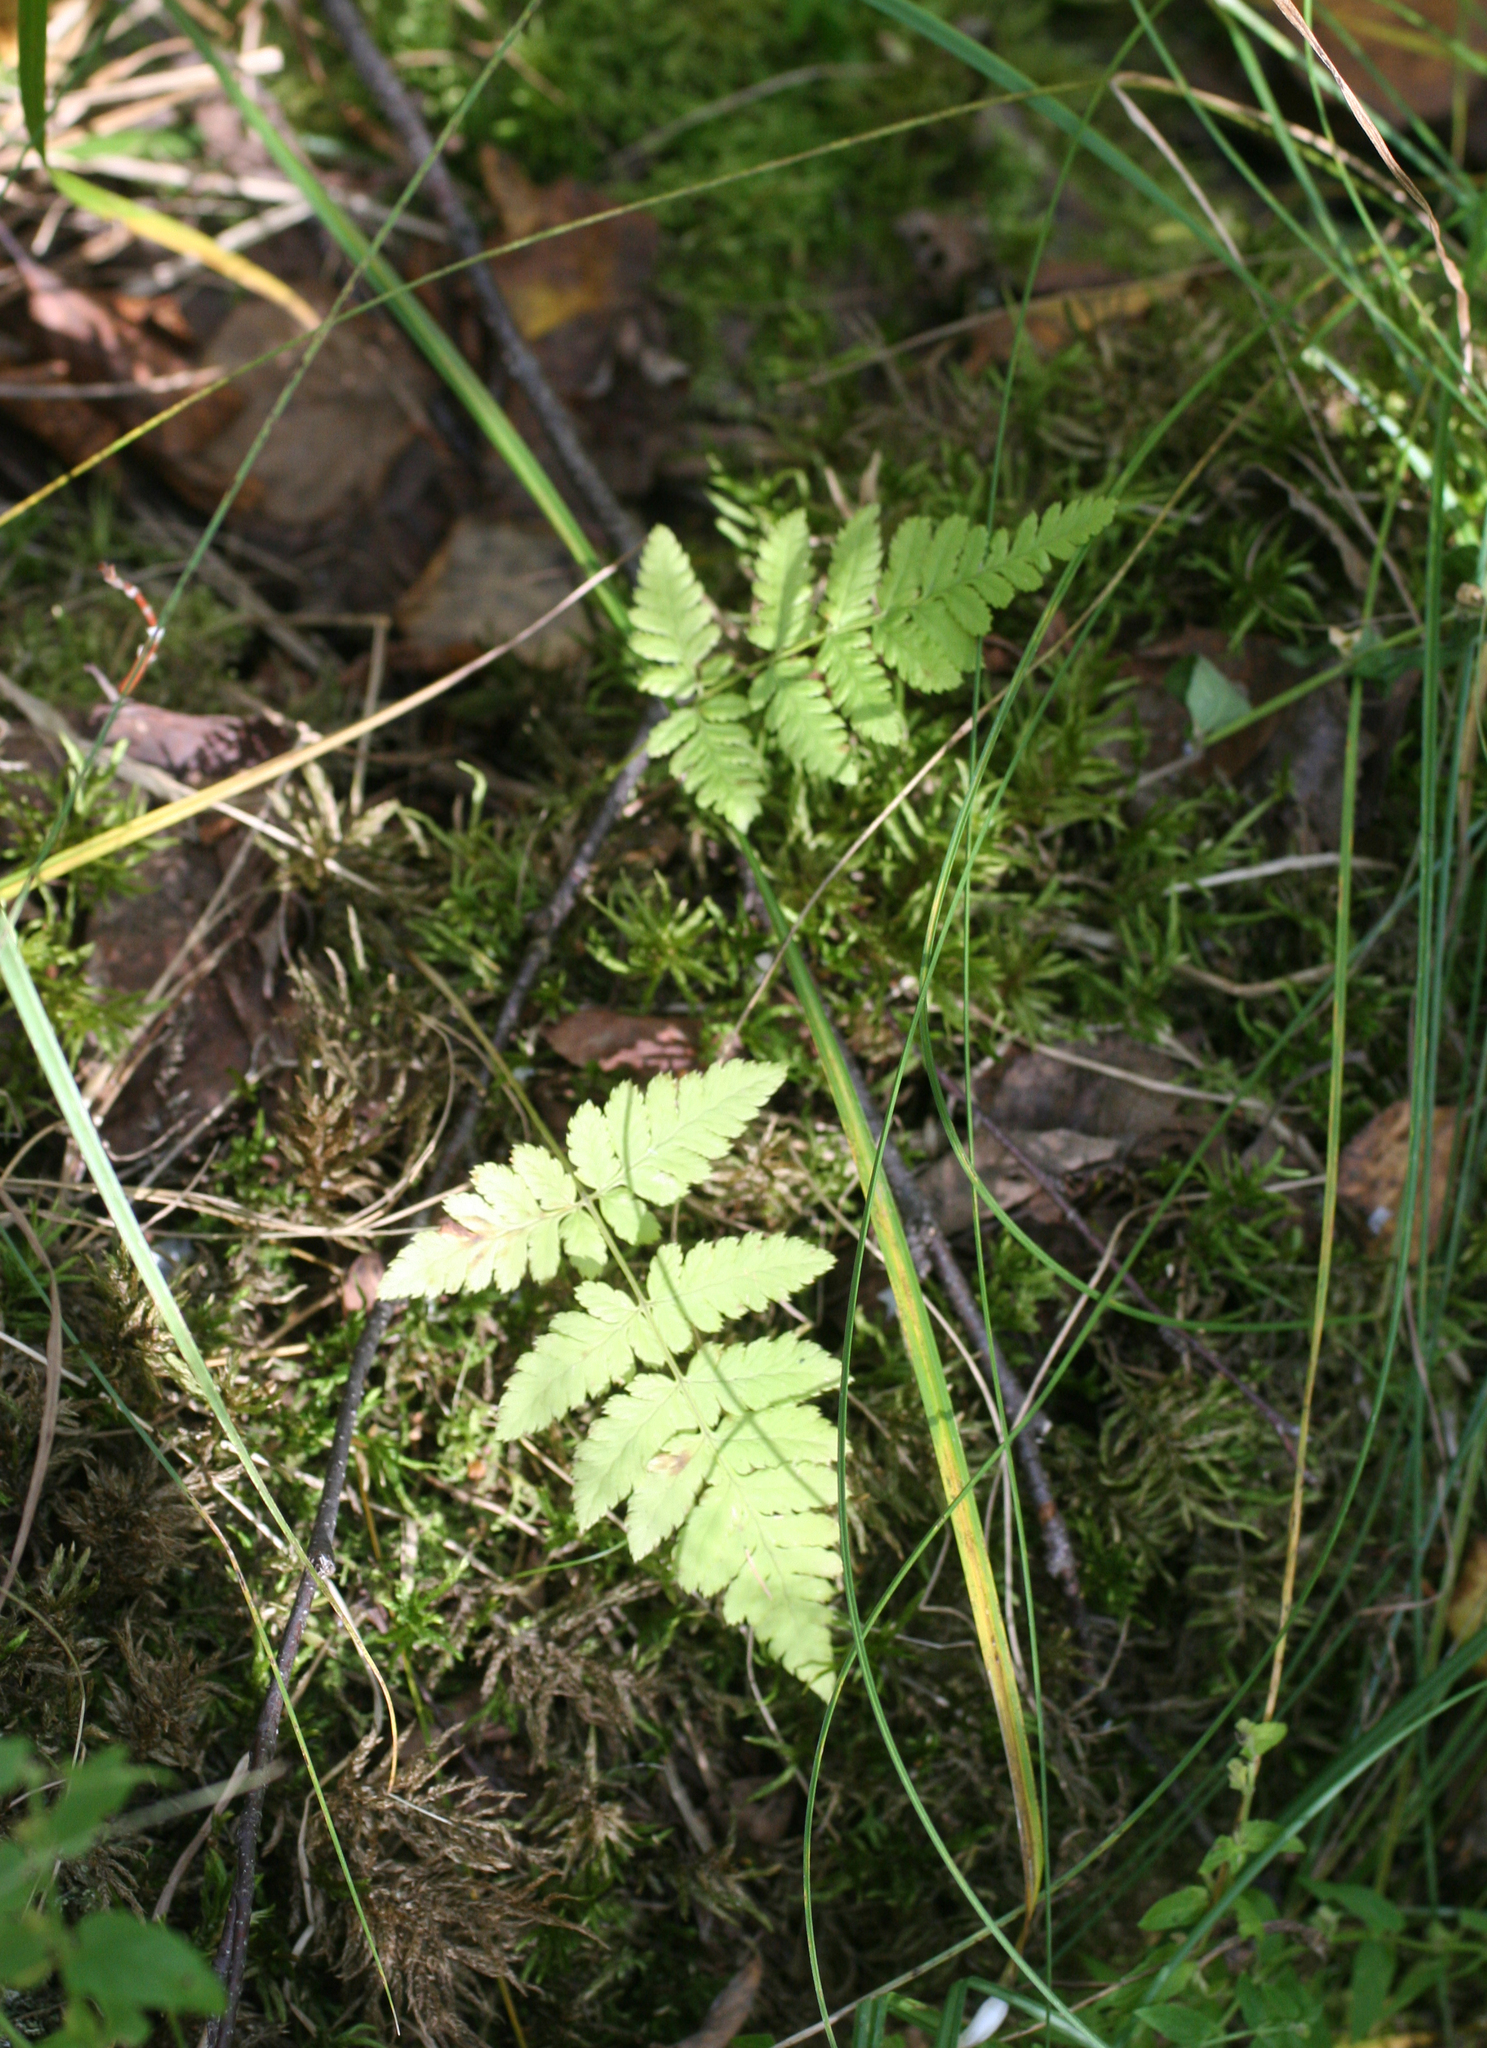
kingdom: Plantae
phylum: Tracheophyta
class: Polypodiopsida
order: Polypodiales
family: Dryopteridaceae
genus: Dryopteris
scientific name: Dryopteris carthusiana
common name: Narrow buckler-fern
